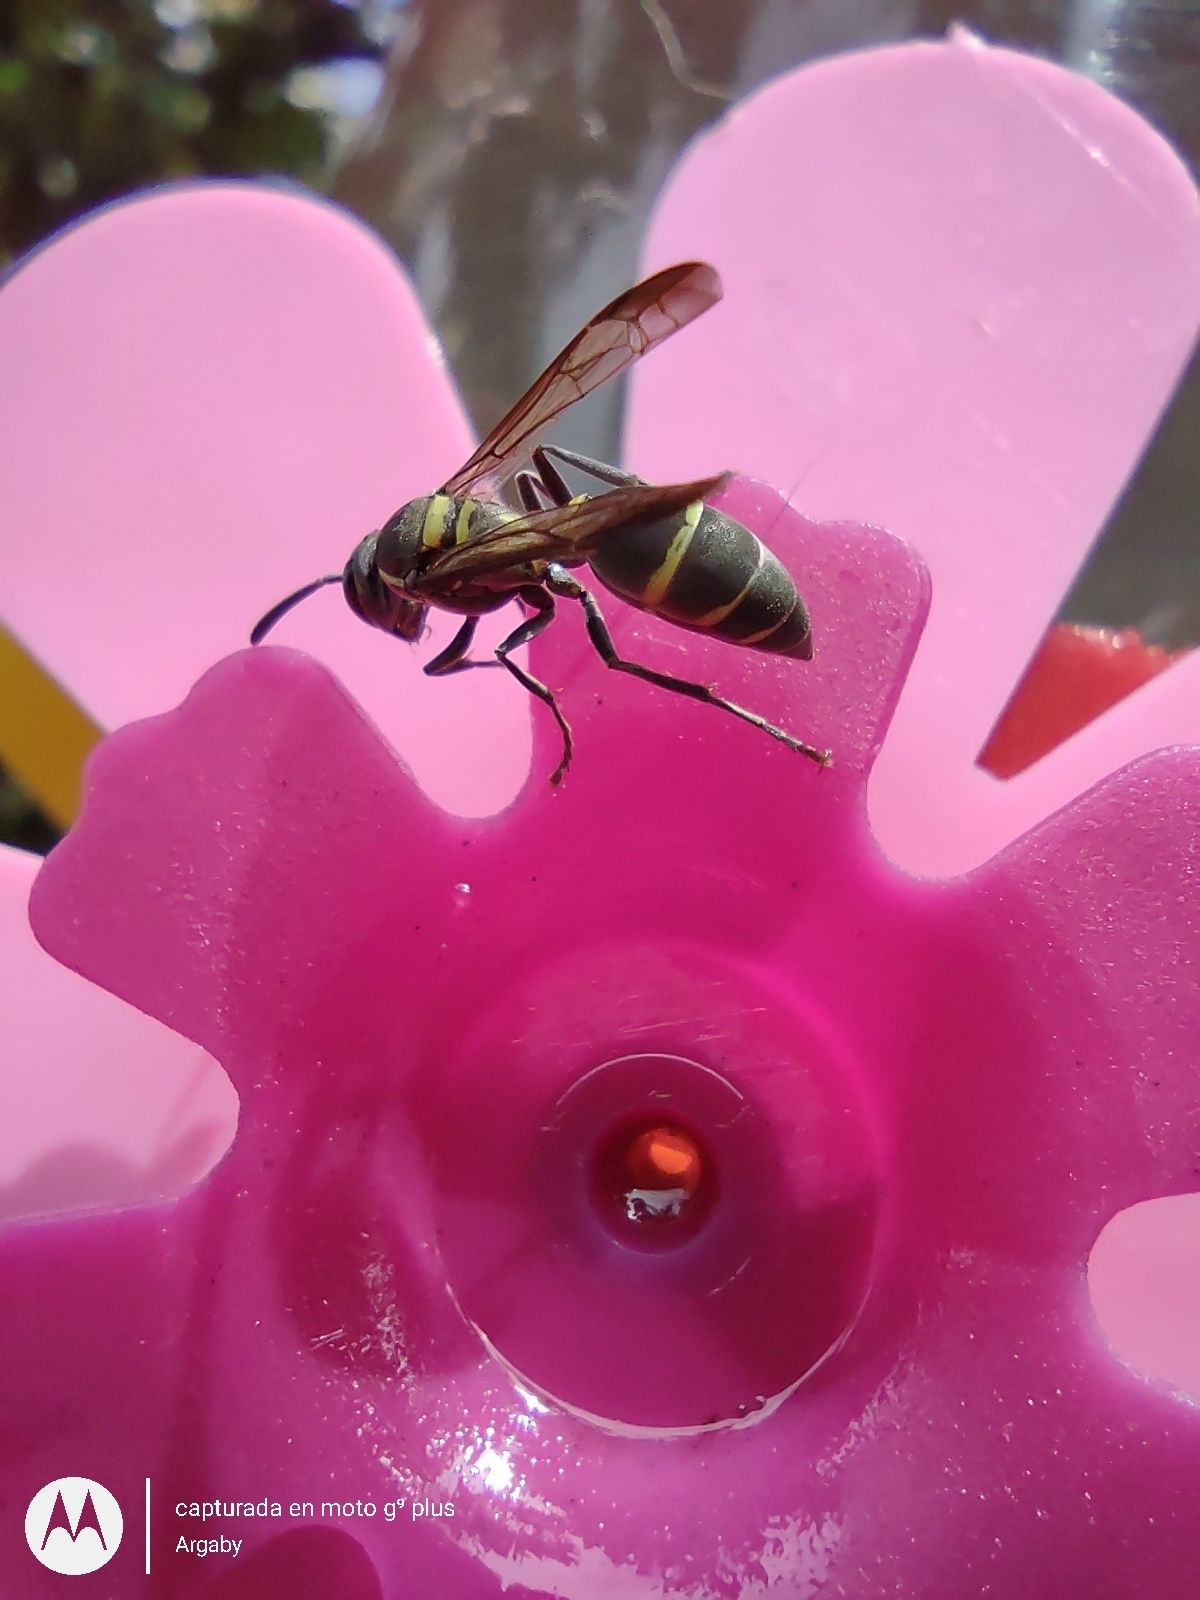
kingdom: Animalia
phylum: Arthropoda
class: Insecta
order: Hymenoptera
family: Eumenidae
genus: Polybia
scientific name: Polybia occidentalis
